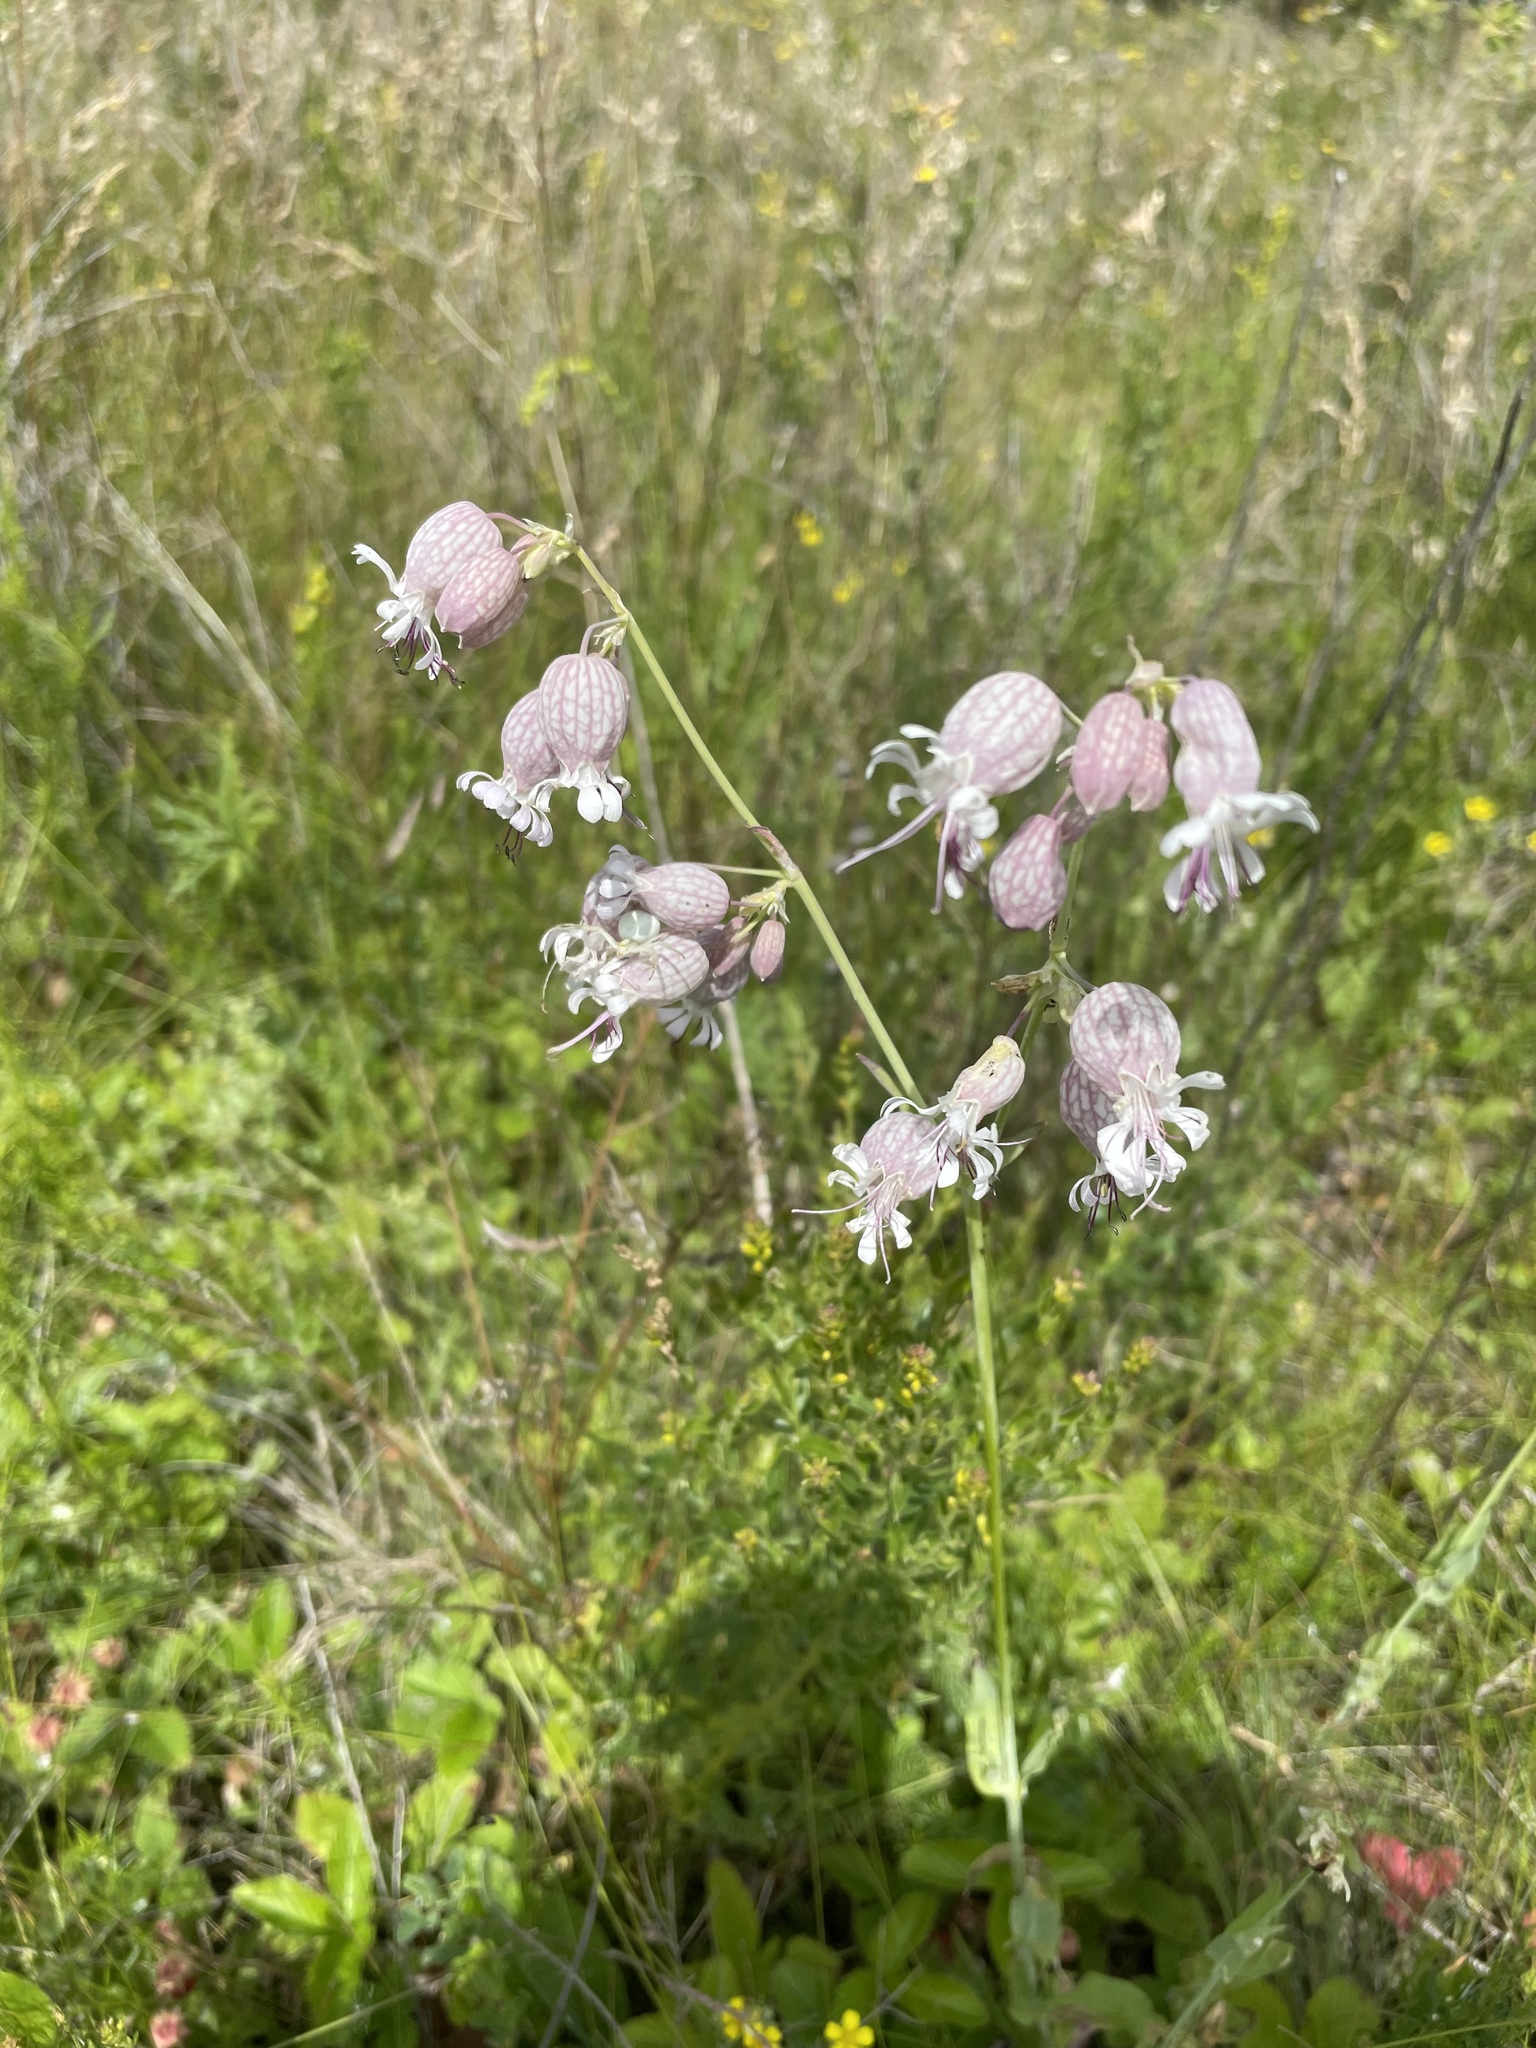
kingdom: Plantae
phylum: Tracheophyta
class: Magnoliopsida
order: Caryophyllales
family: Caryophyllaceae
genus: Silene
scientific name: Silene vulgaris
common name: Bladder campion
